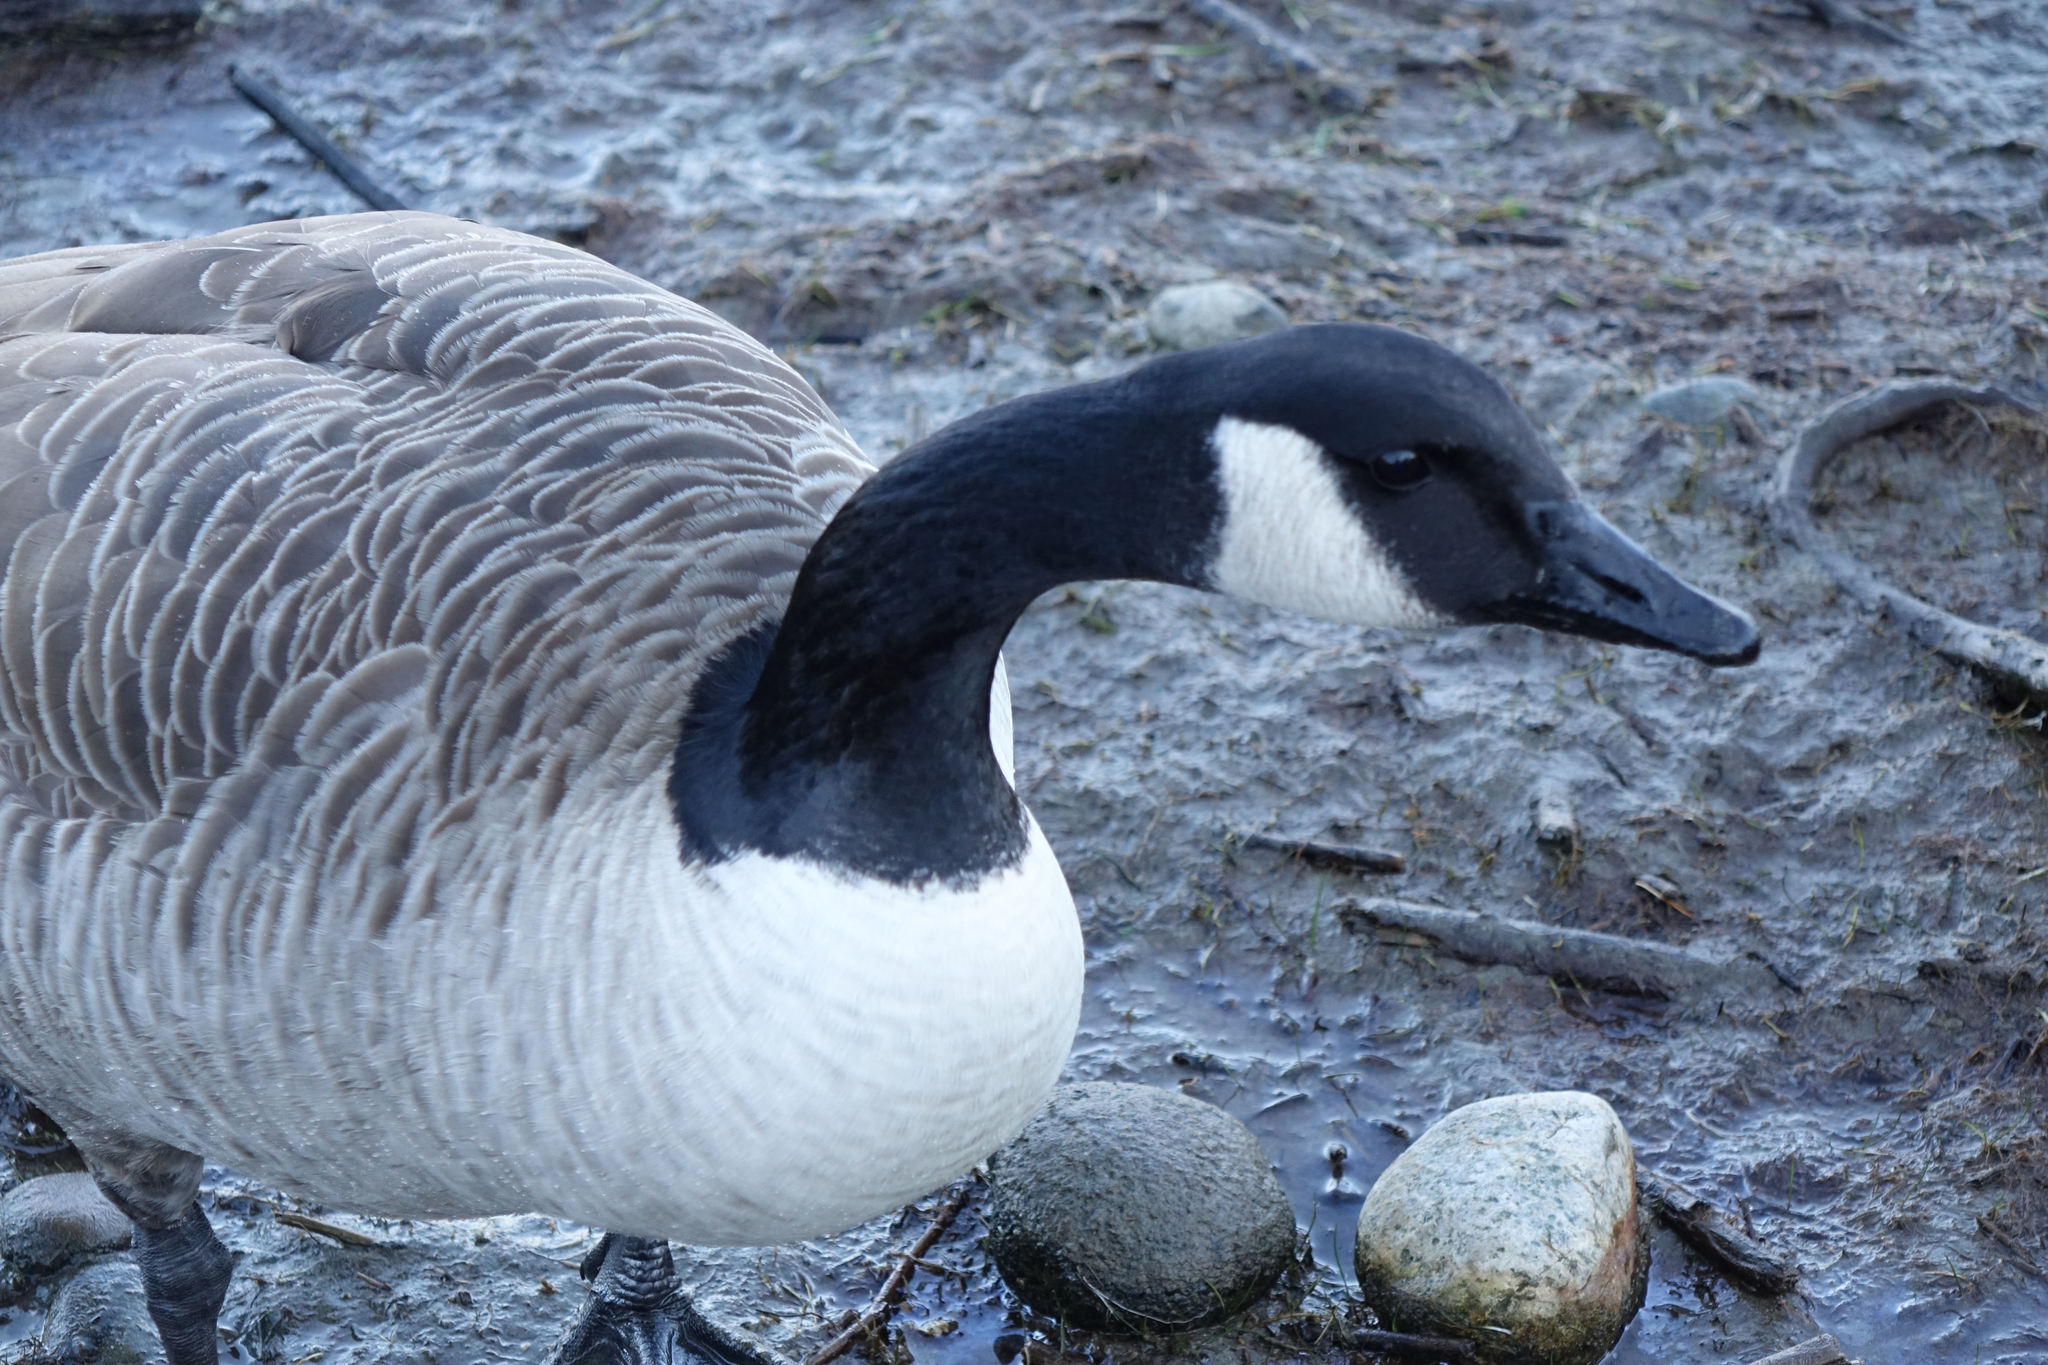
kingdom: Animalia
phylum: Chordata
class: Aves
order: Anseriformes
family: Anatidae
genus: Branta
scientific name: Branta canadensis
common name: Canada goose
